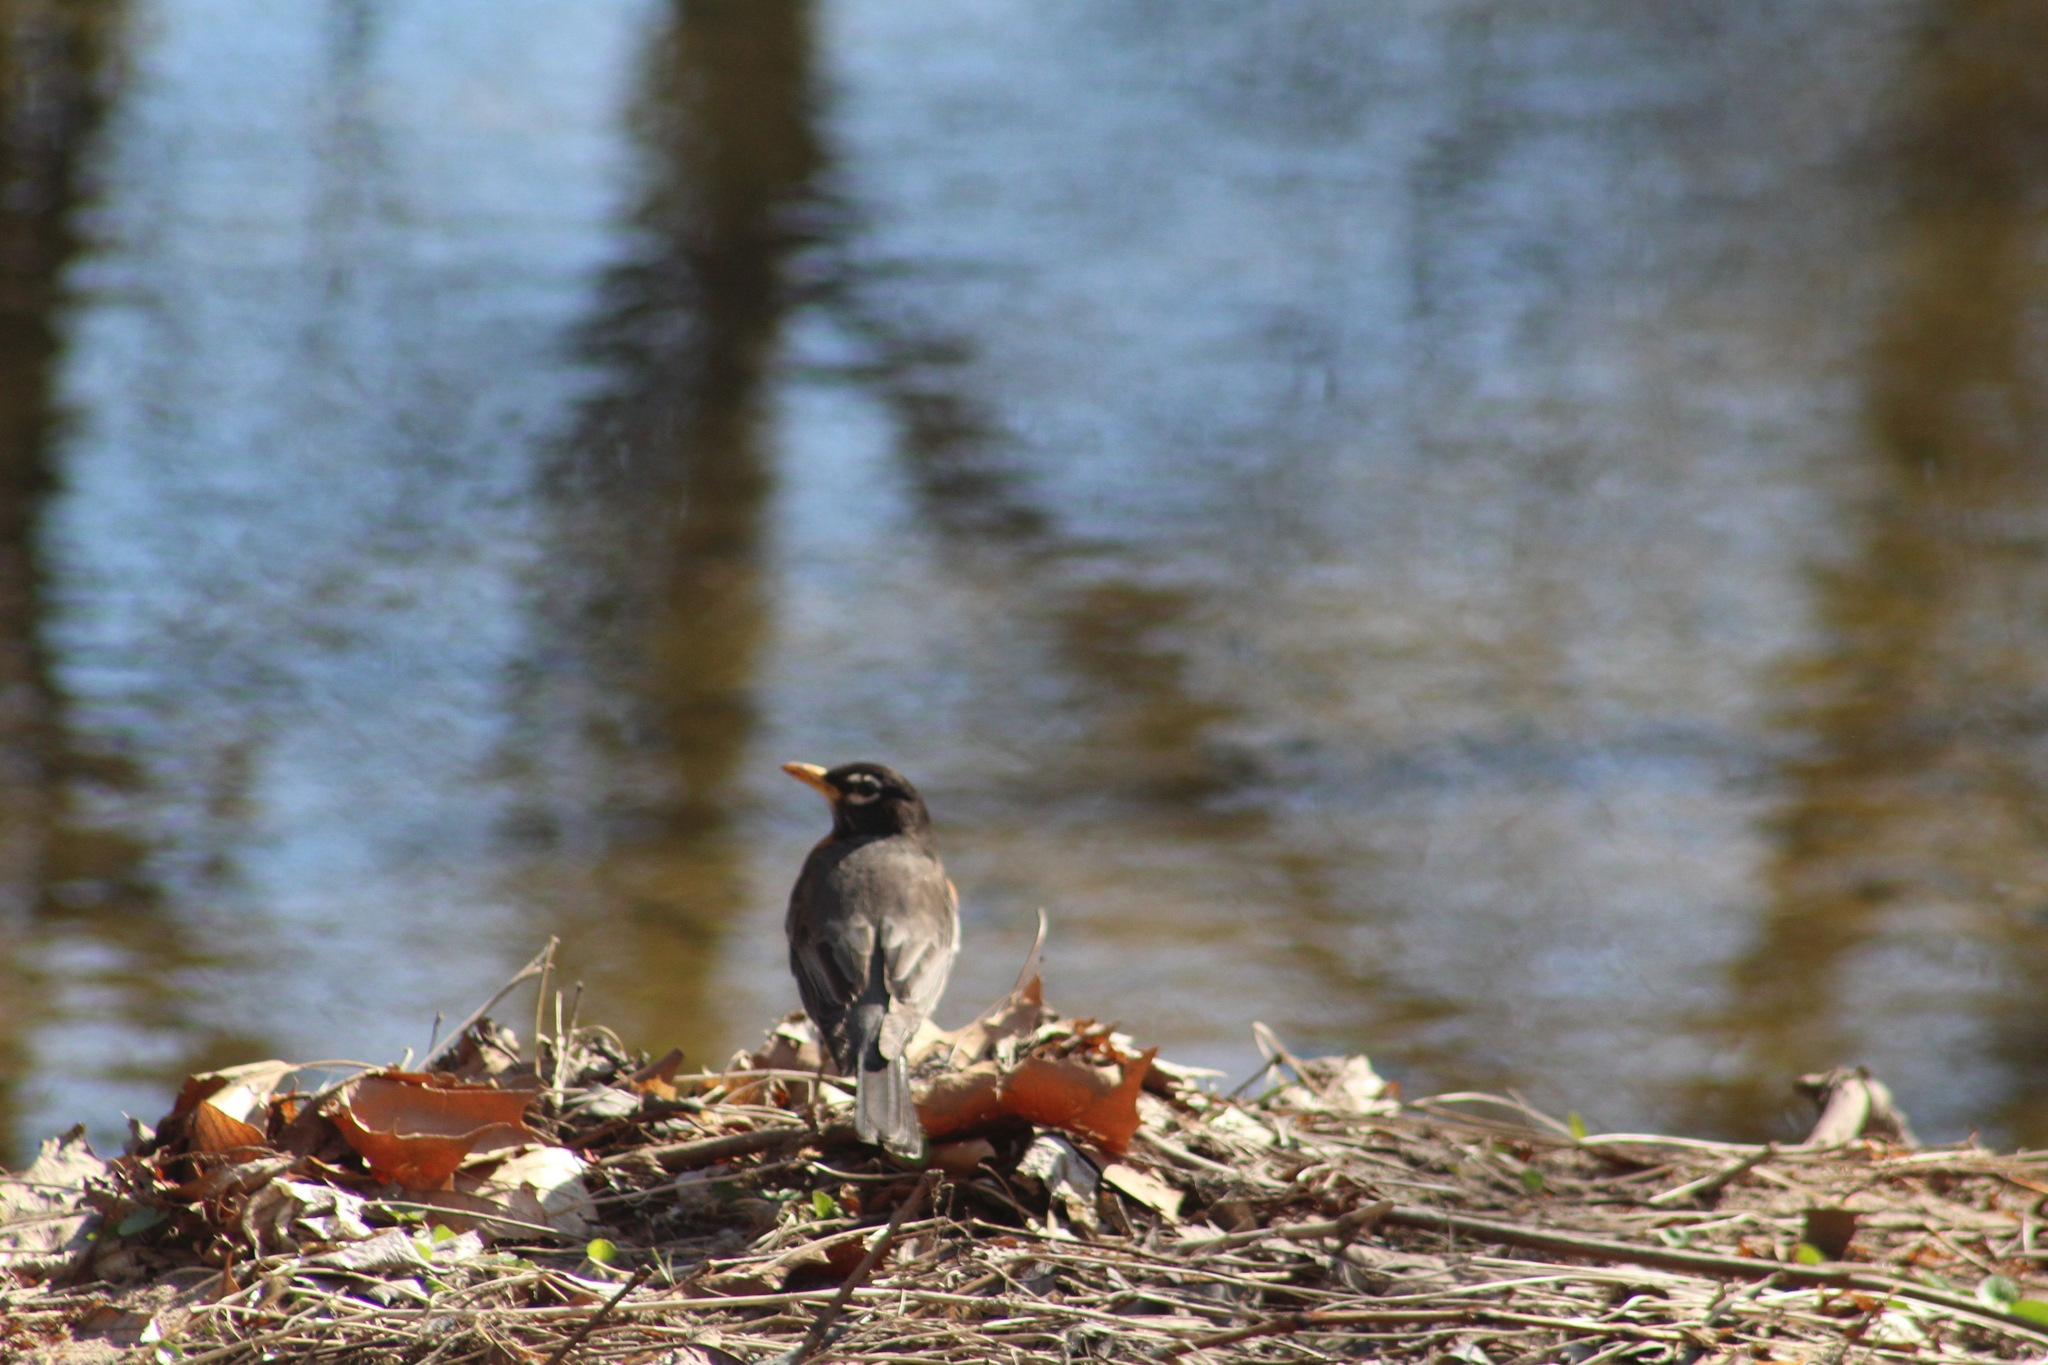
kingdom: Animalia
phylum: Chordata
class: Aves
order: Passeriformes
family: Turdidae
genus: Turdus
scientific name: Turdus migratorius
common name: American robin
